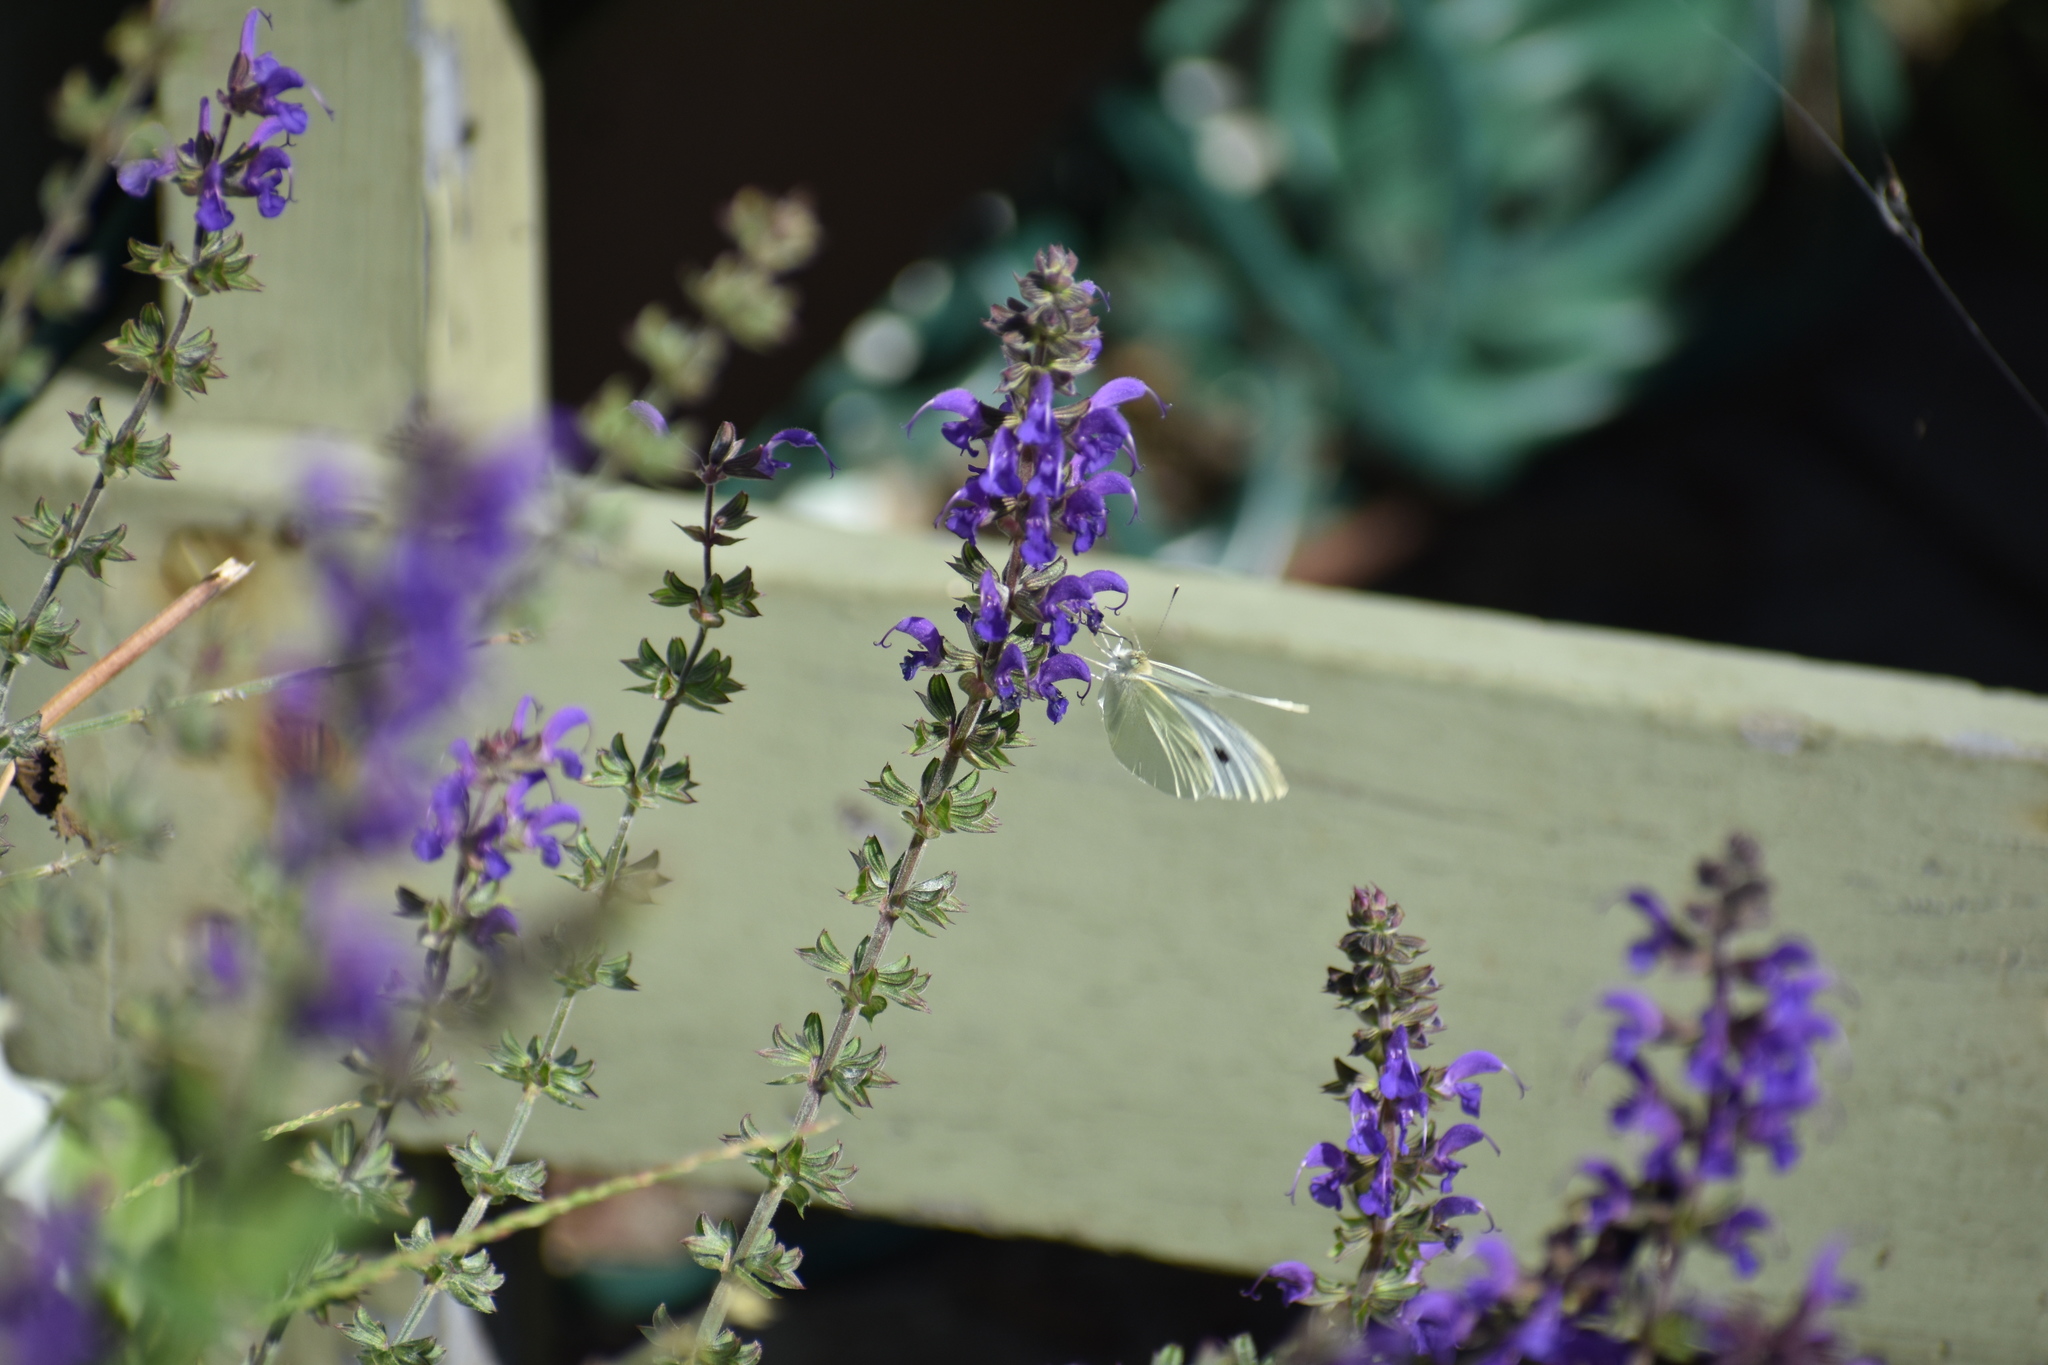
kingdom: Animalia
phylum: Arthropoda
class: Insecta
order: Lepidoptera
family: Pieridae
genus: Pieris
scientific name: Pieris rapae
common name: Small white
